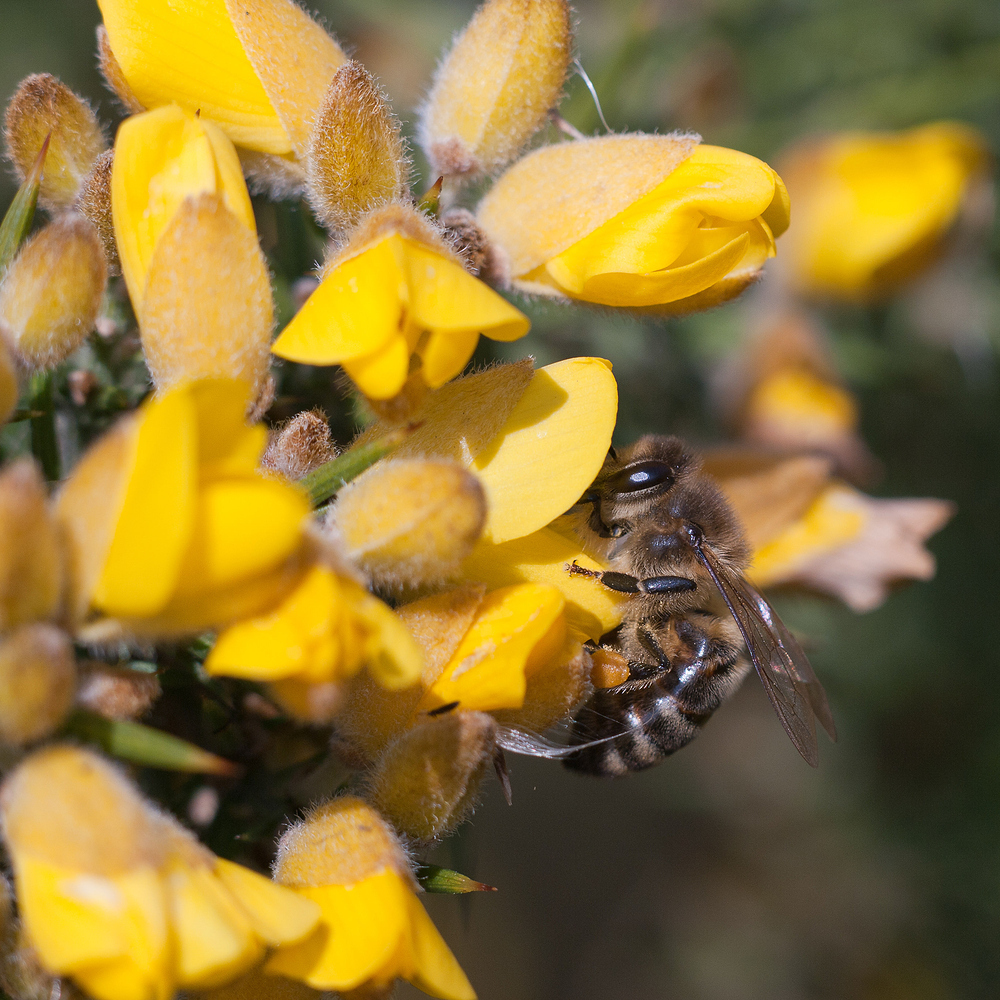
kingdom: Animalia
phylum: Arthropoda
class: Insecta
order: Hymenoptera
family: Apidae
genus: Apis
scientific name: Apis mellifera
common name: Honey bee
